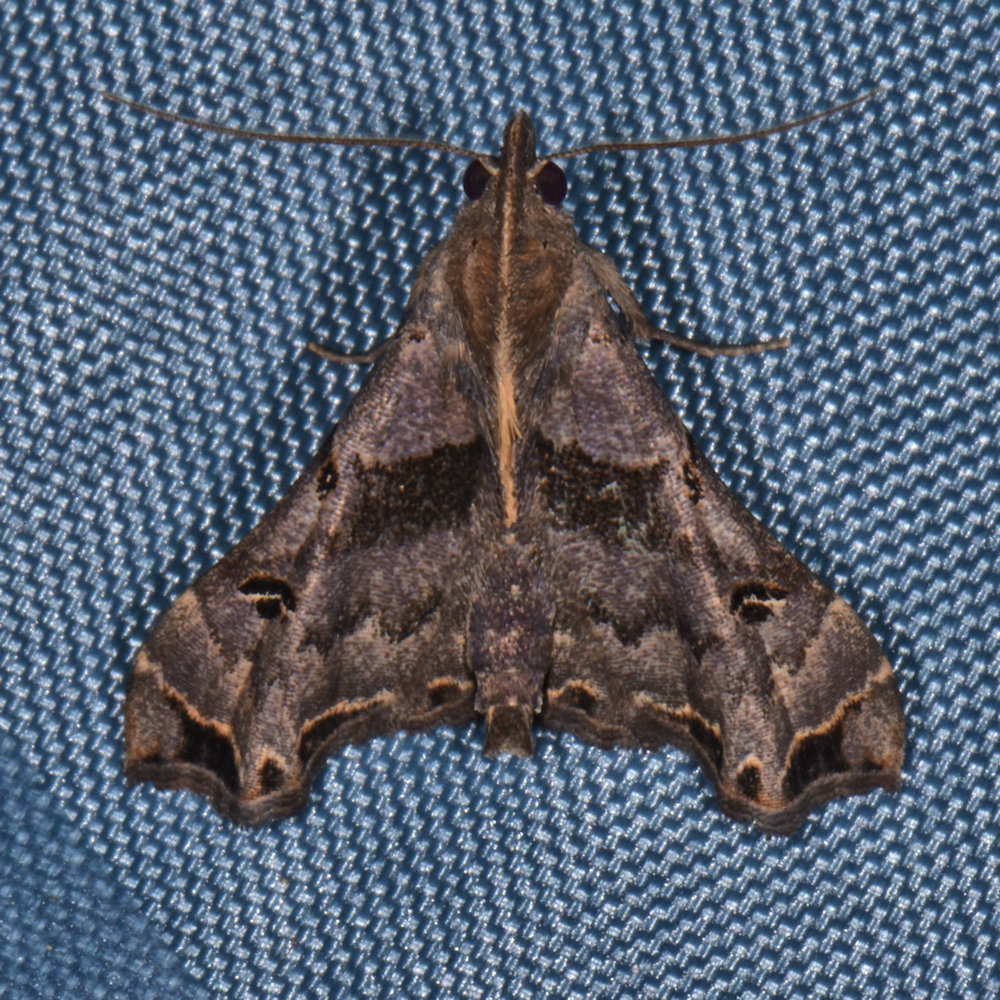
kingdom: Animalia
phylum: Arthropoda
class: Insecta
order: Lepidoptera
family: Erebidae
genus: Palthis
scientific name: Palthis asopialis
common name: Faint-spotted palthis moth
